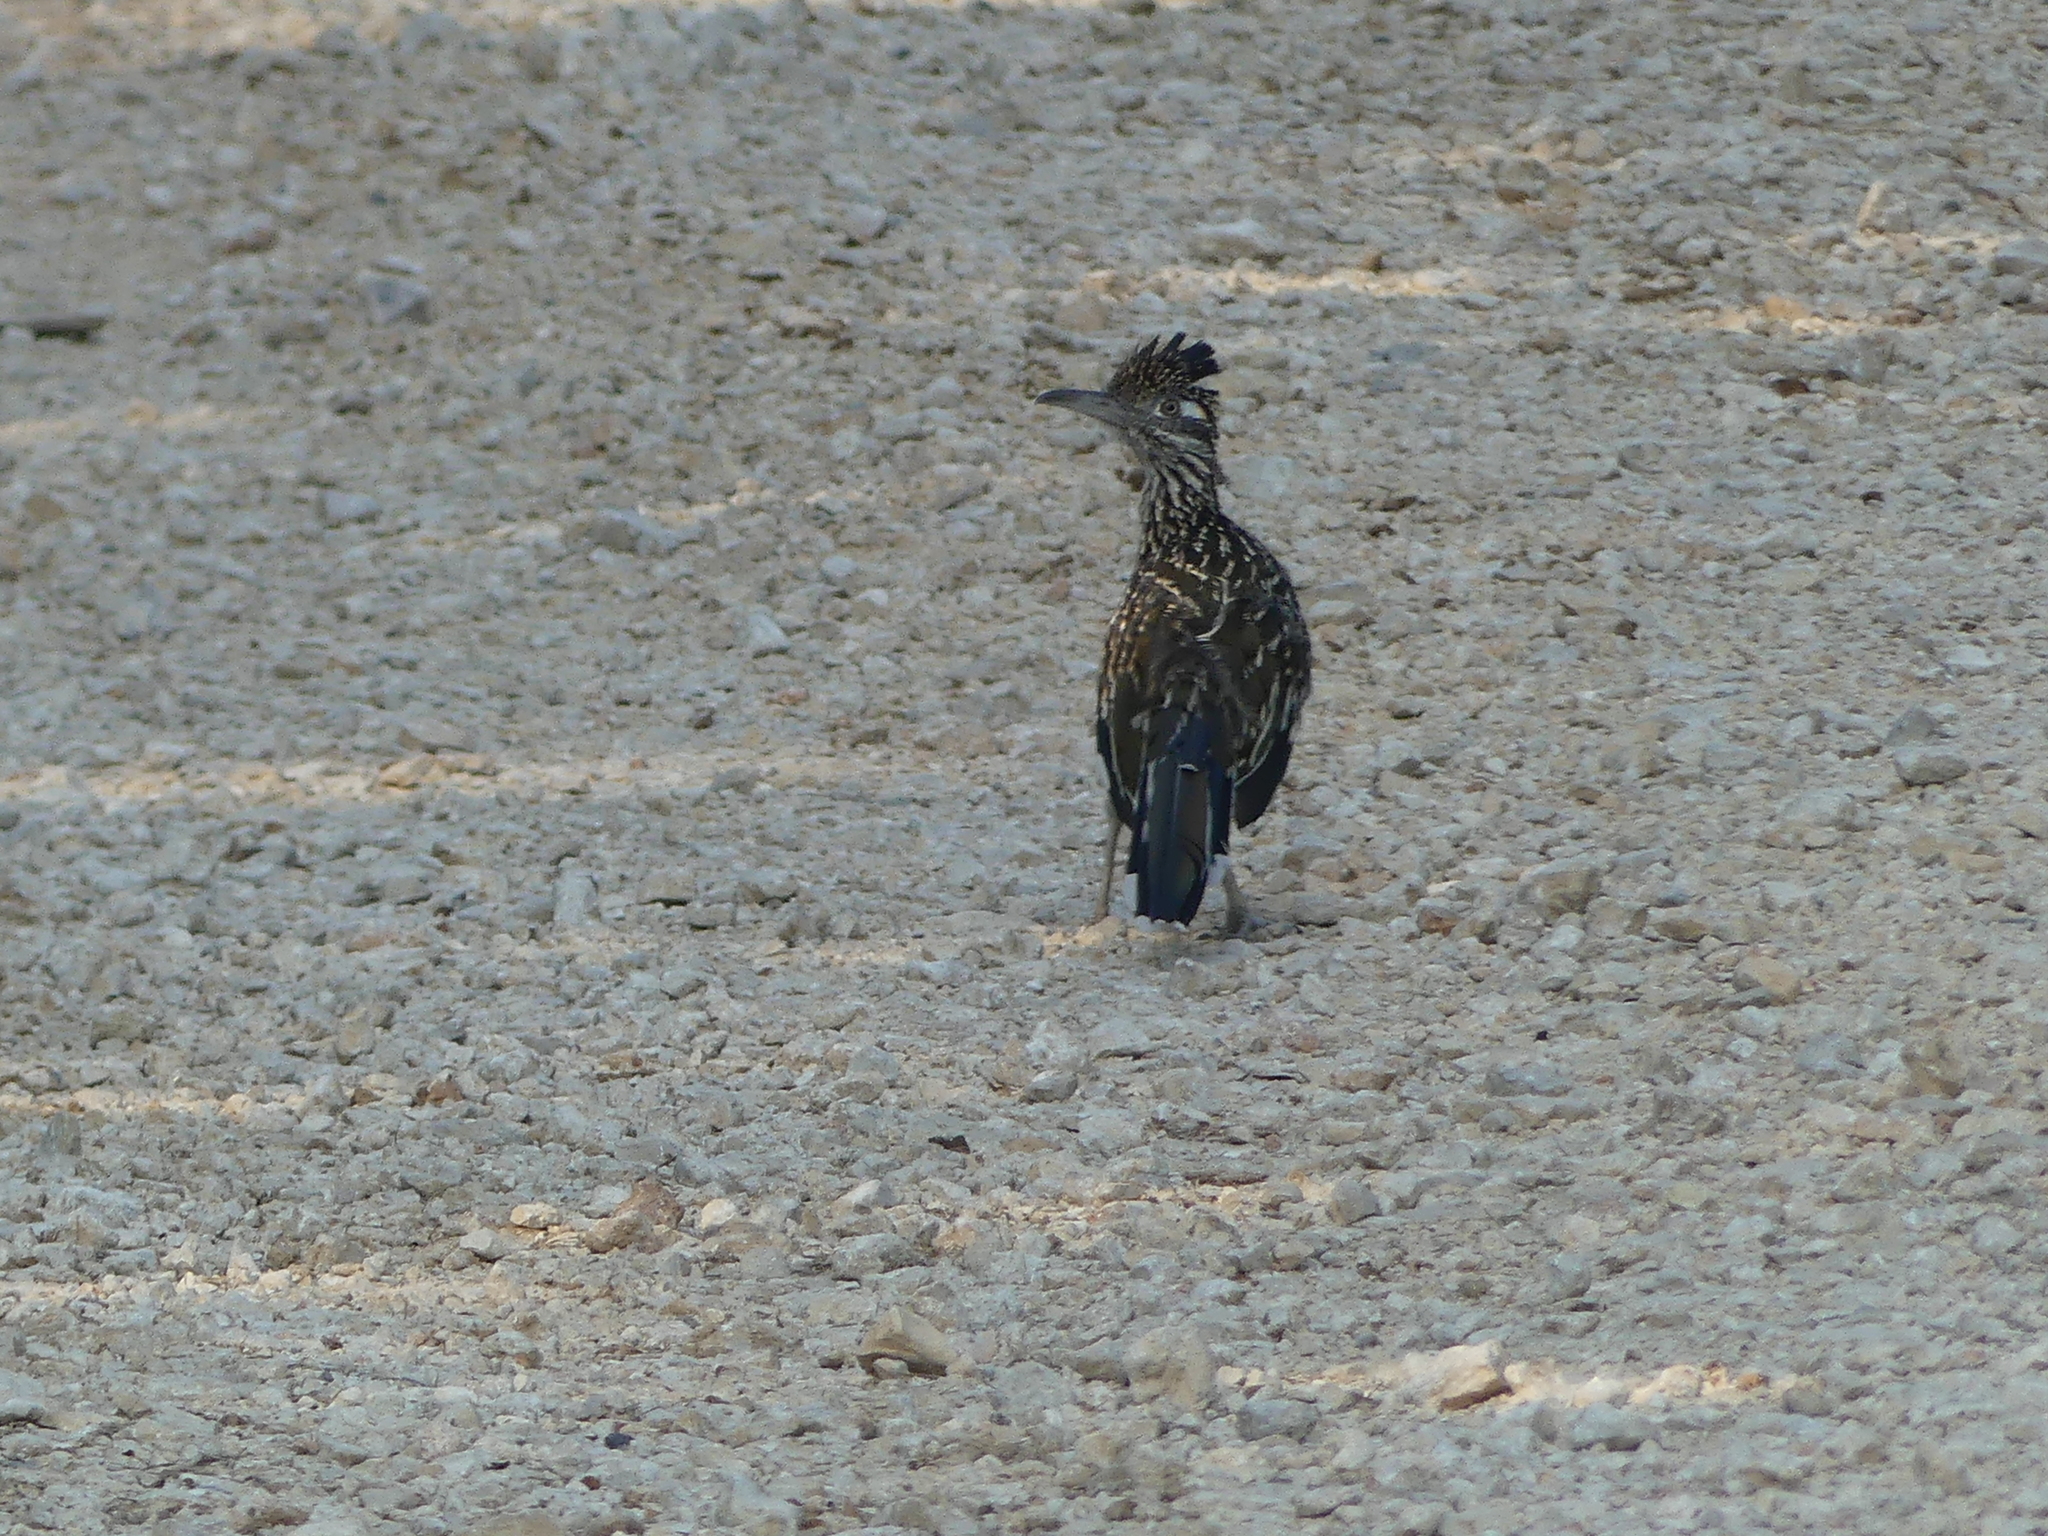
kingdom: Animalia
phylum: Chordata
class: Aves
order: Cuculiformes
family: Cuculidae
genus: Geococcyx
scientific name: Geococcyx californianus
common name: Greater roadrunner
